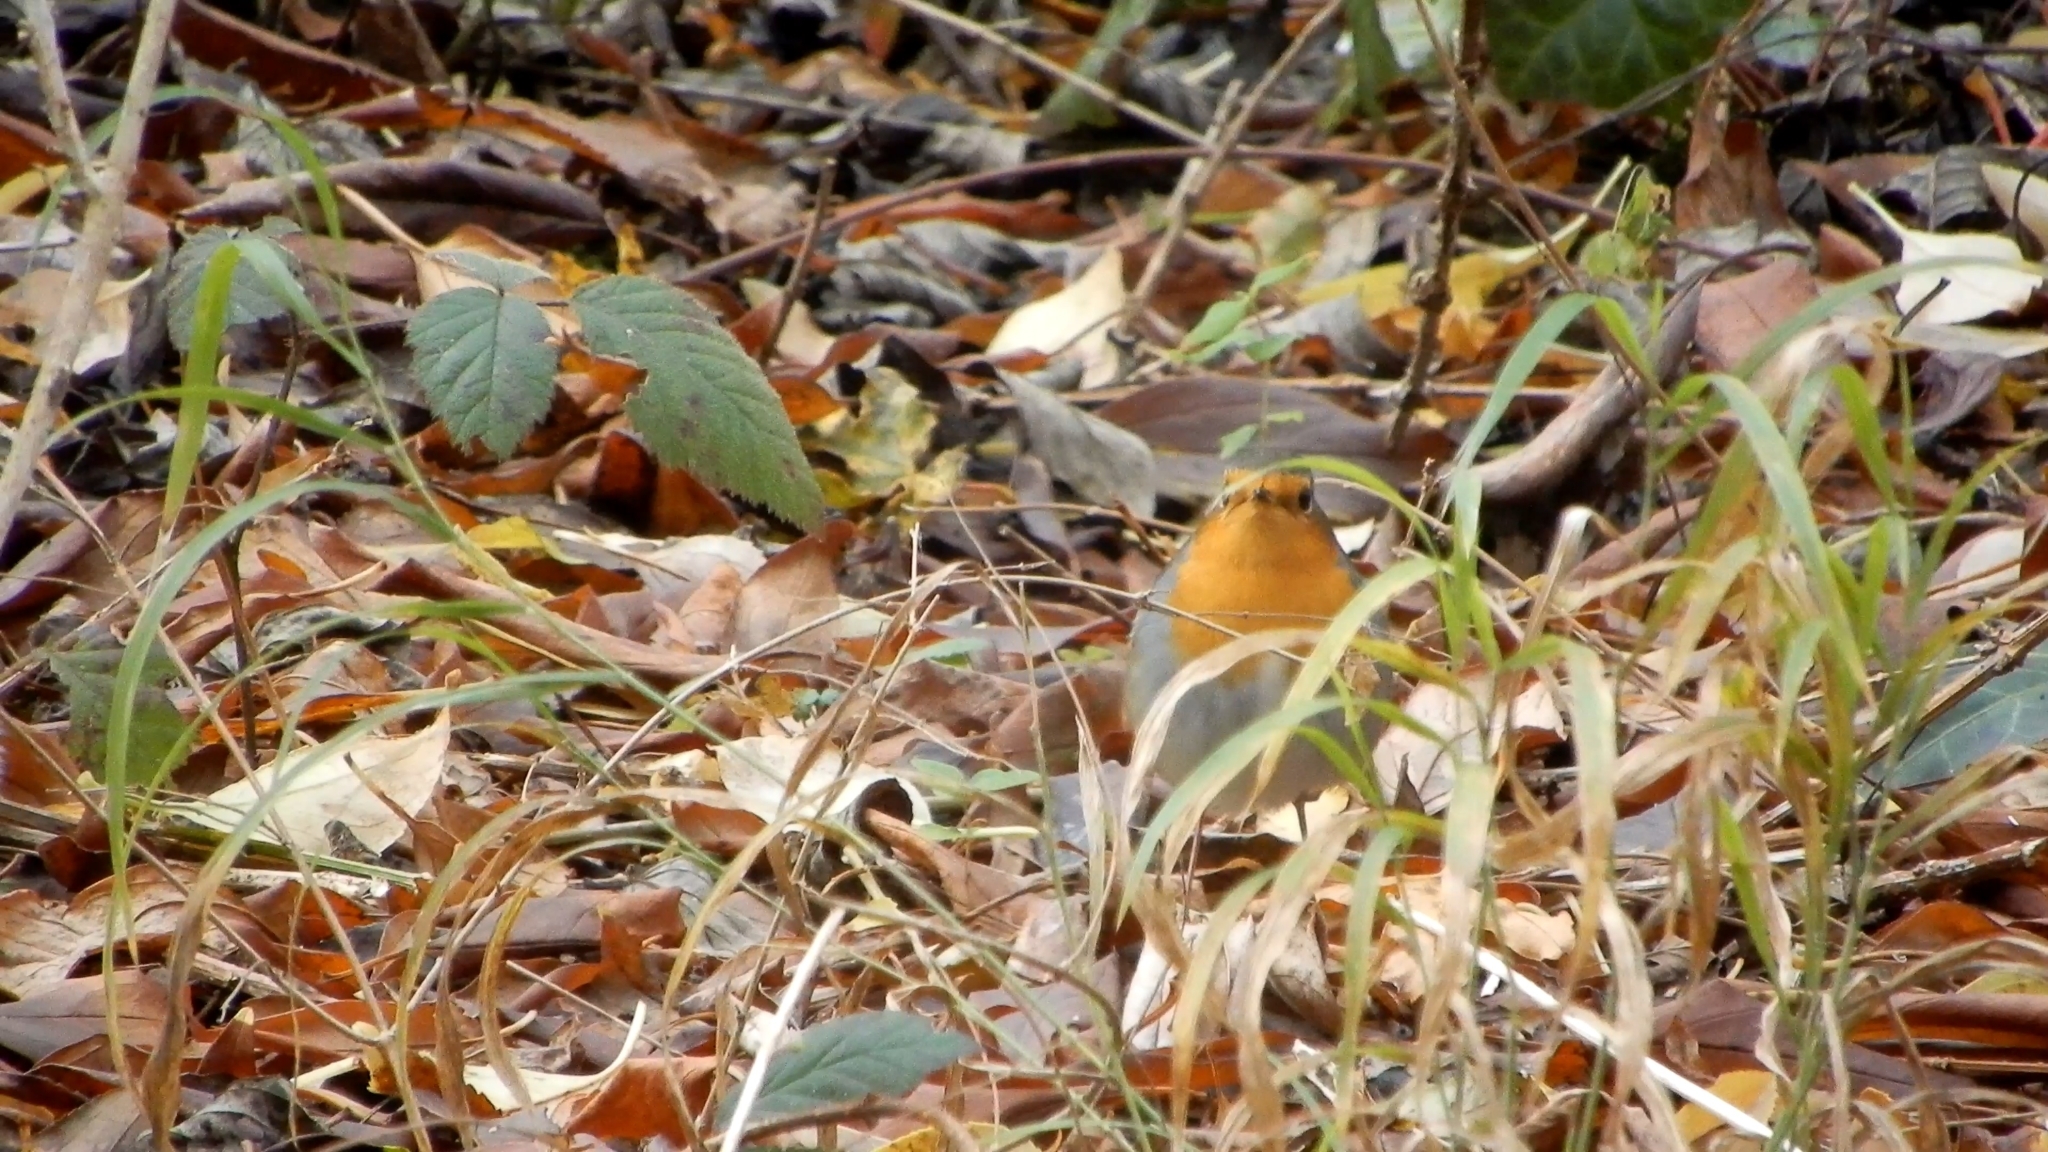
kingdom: Animalia
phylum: Chordata
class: Aves
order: Passeriformes
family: Muscicapidae
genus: Erithacus
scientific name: Erithacus rubecula
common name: European robin
